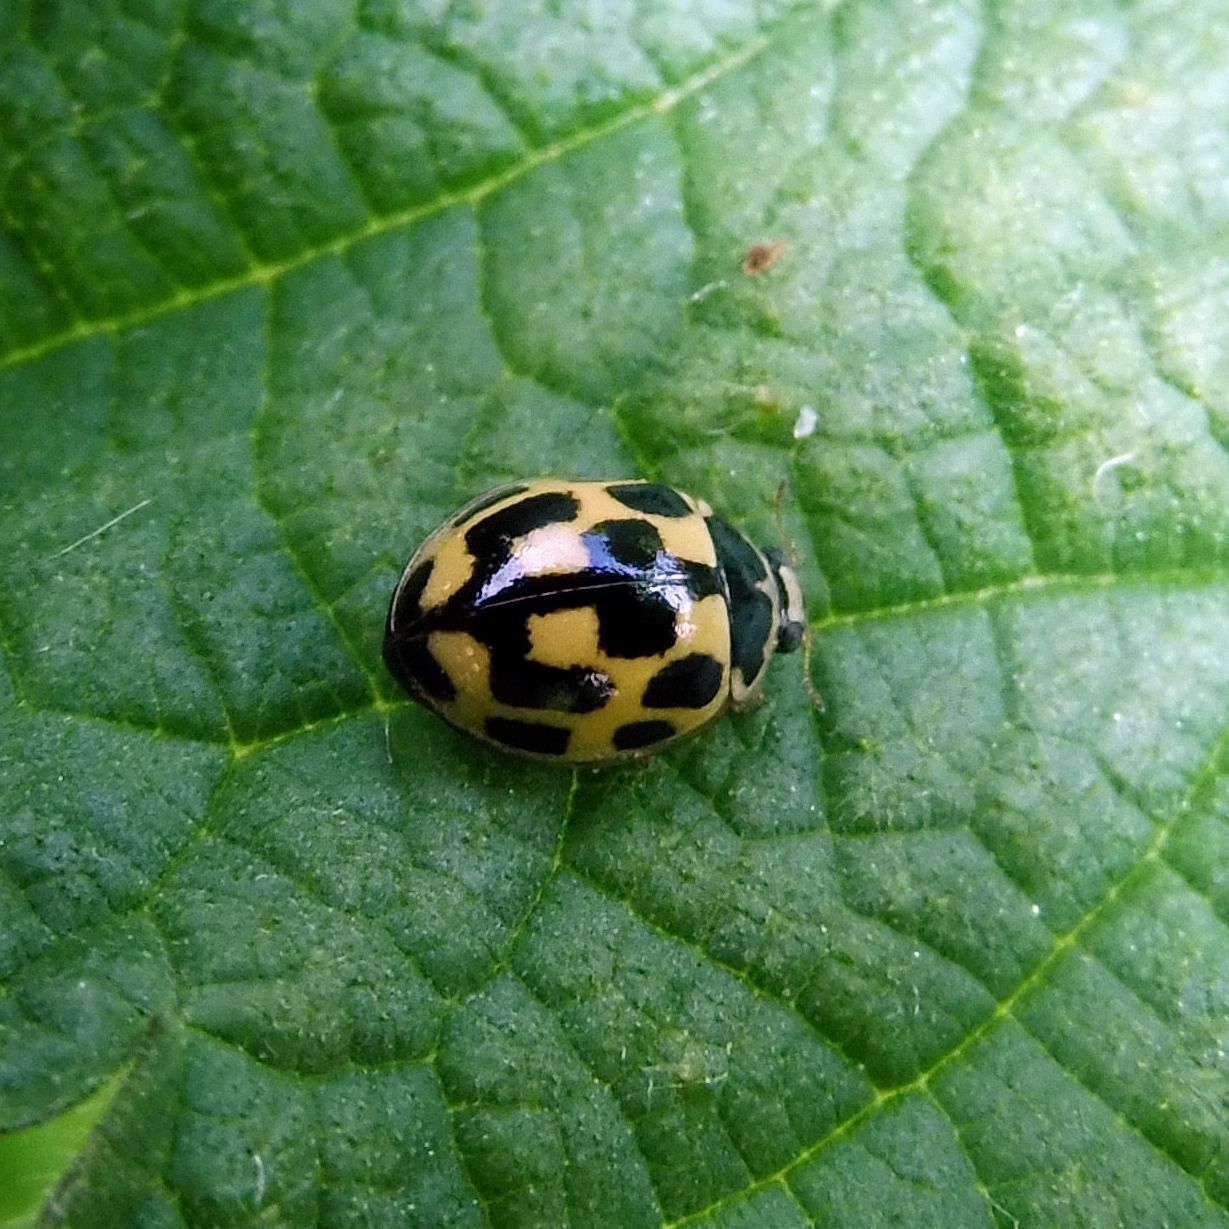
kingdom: Animalia
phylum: Arthropoda
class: Insecta
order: Coleoptera
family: Coccinellidae
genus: Propylaea
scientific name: Propylaea quatuordecimpunctata
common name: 14-spotted ladybird beetle
